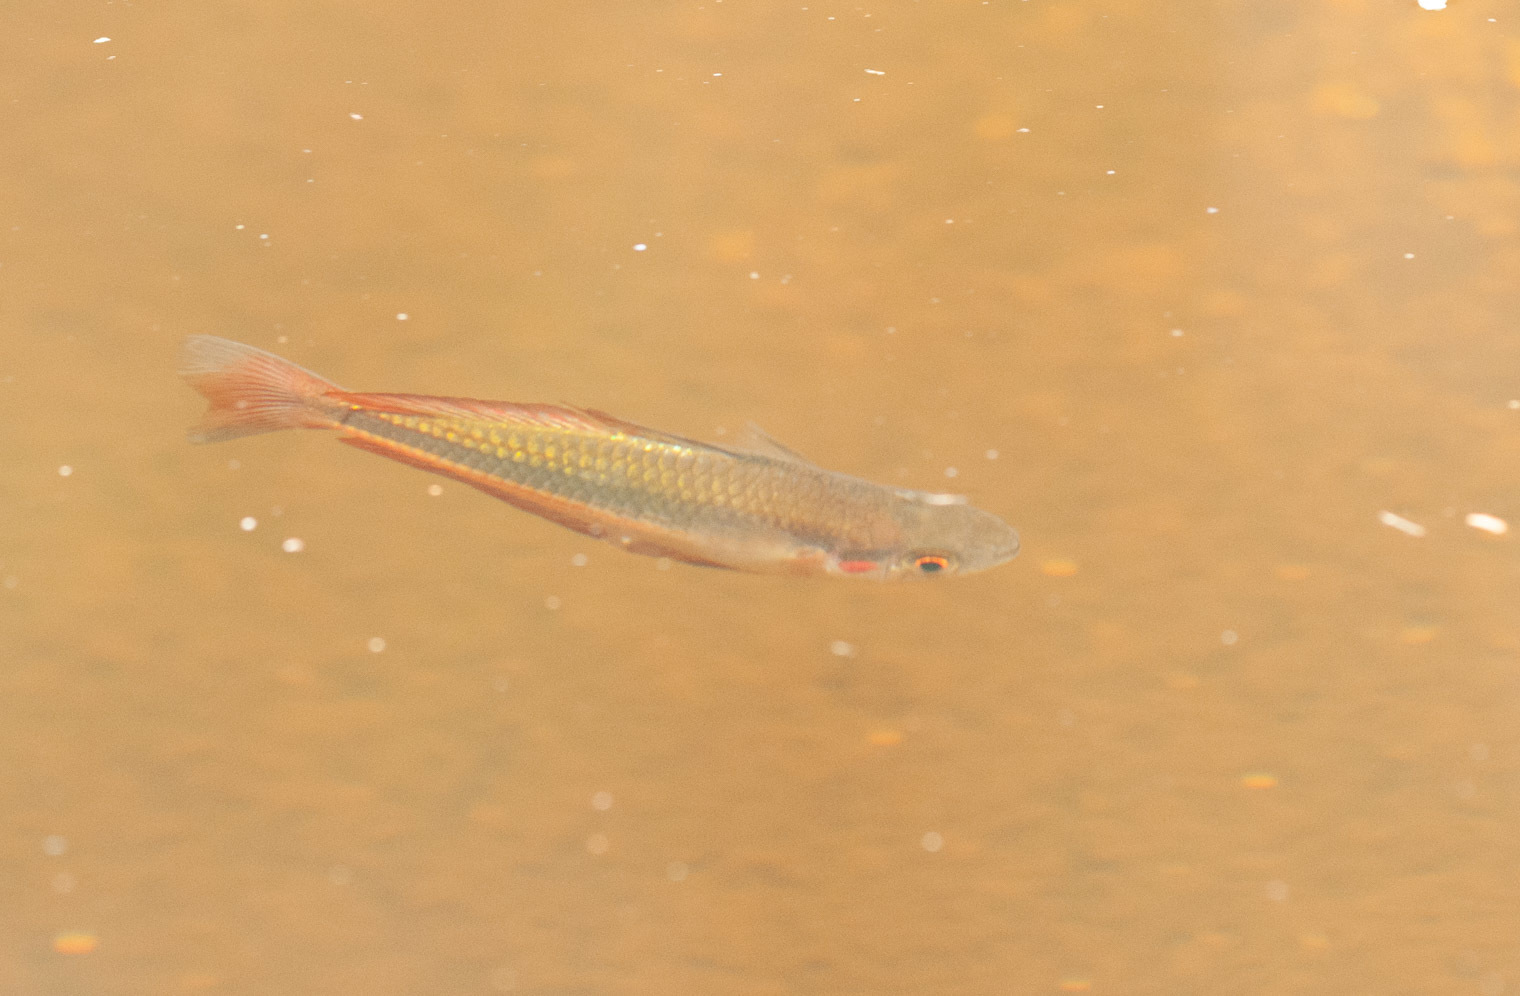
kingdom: Animalia
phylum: Chordata
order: Atheriniformes
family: Melanotaeniidae
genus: Melanotaenia
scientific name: Melanotaenia duboulayi
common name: Crimson-spotted rainbowfish
